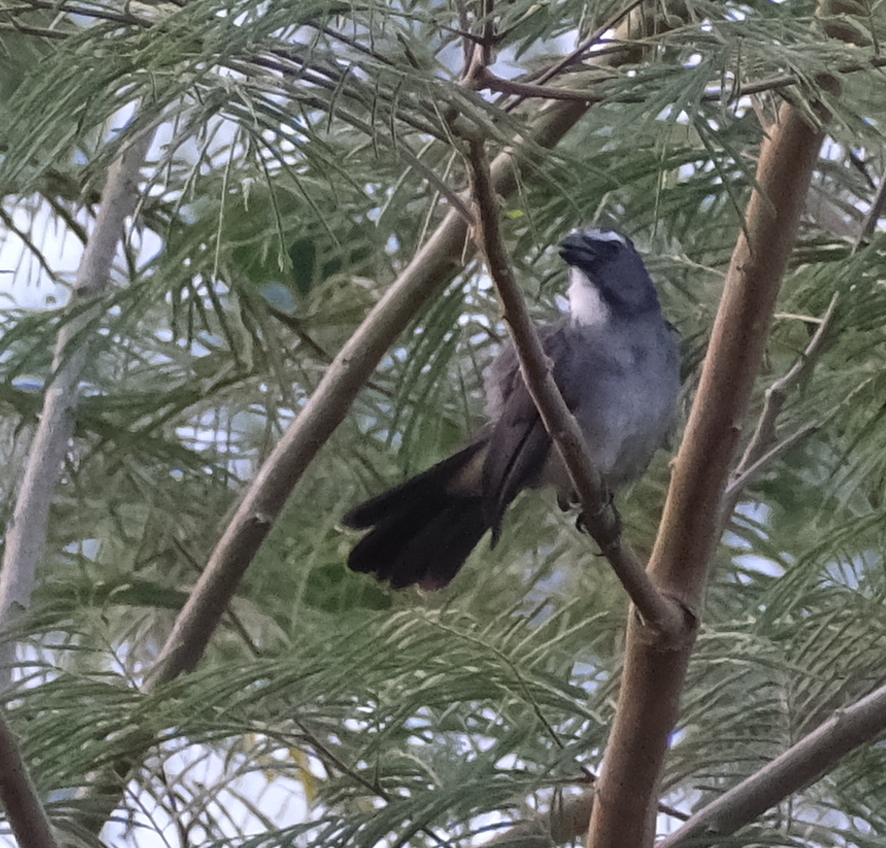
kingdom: Animalia
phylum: Chordata
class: Aves
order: Passeriformes
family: Thraupidae
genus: Saltator
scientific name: Saltator coerulescens
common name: Grayish saltator
